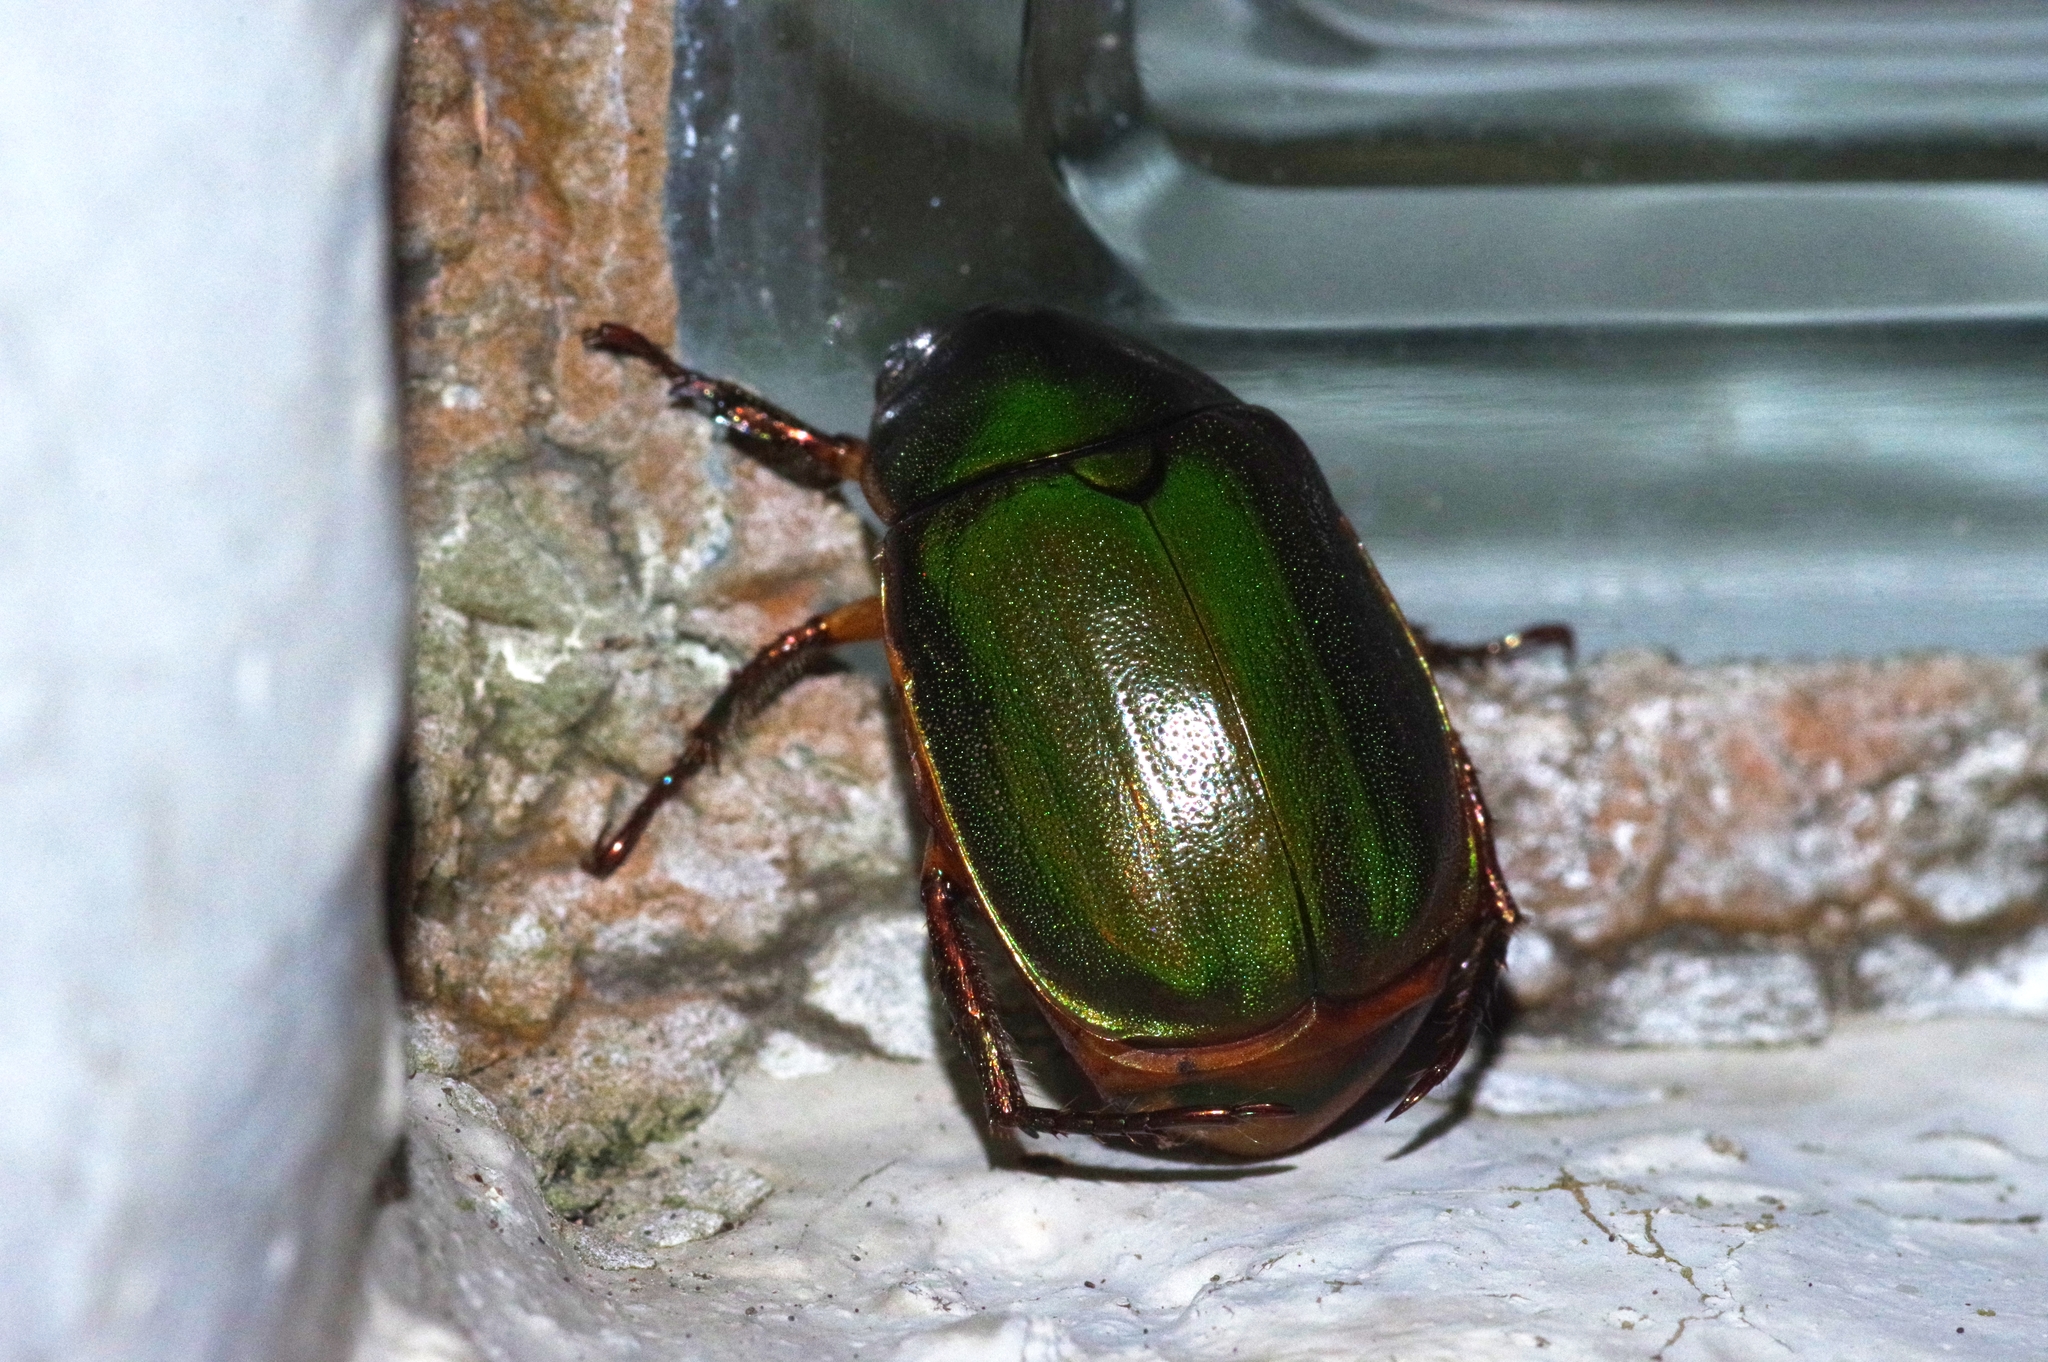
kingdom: Animalia
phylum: Arthropoda
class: Insecta
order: Coleoptera
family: Scarabaeidae
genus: Anomala
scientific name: Anomala xanthopleura
